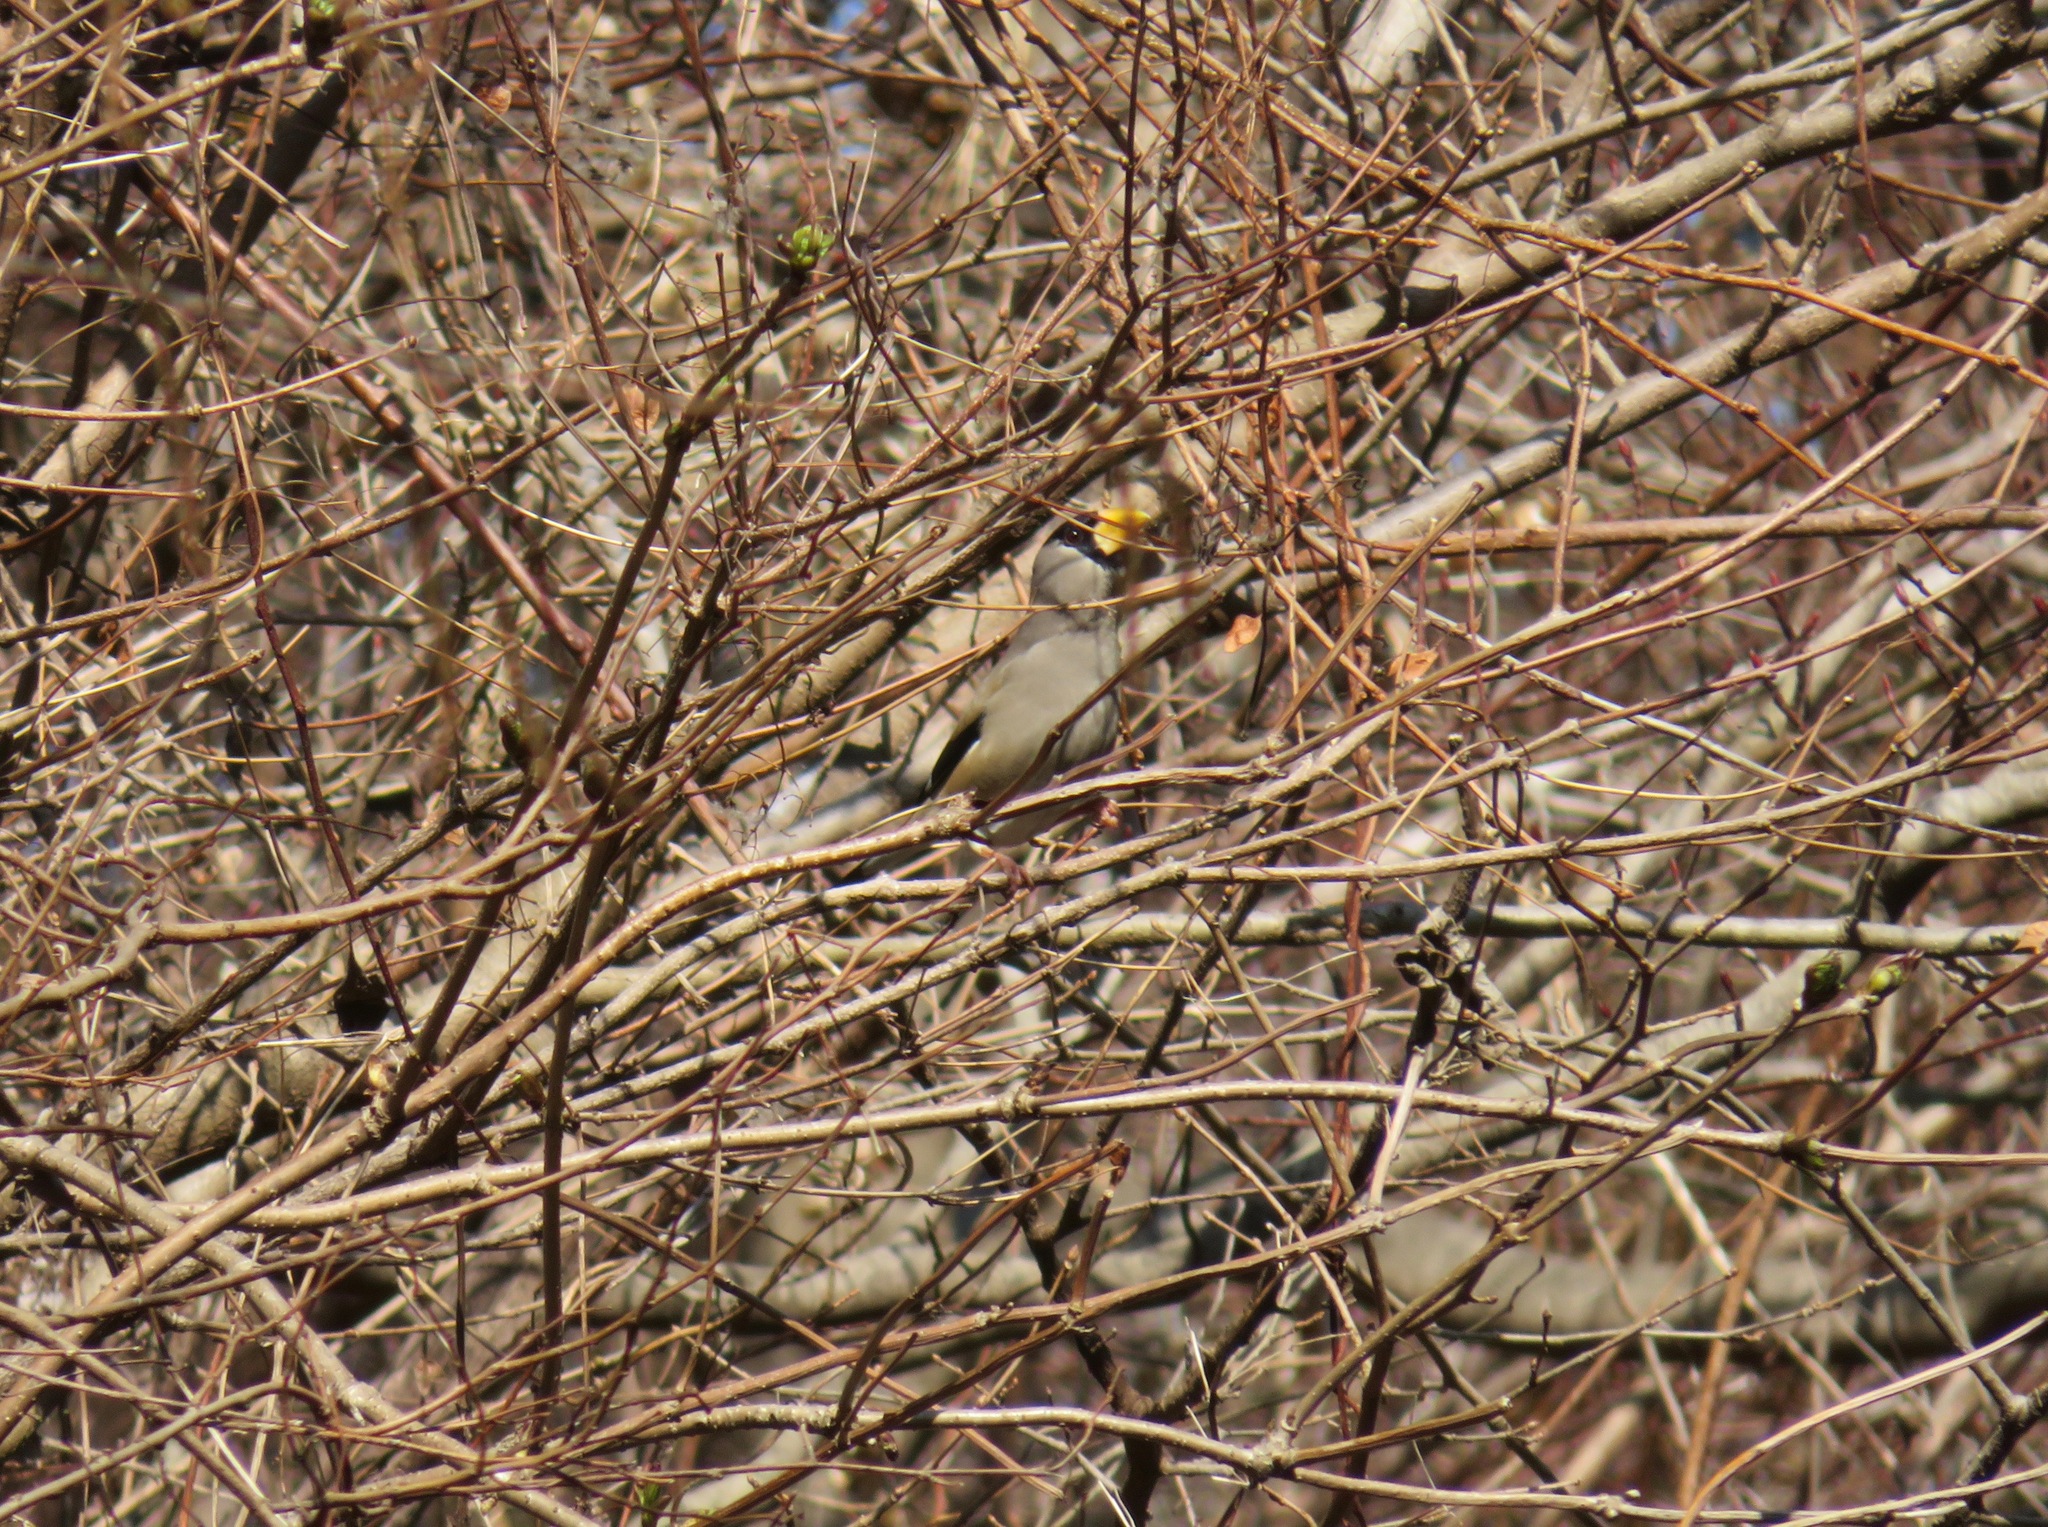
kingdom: Animalia
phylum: Chordata
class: Aves
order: Passeriformes
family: Fringillidae
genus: Eophona
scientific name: Eophona personata
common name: Japanese grosbeak
